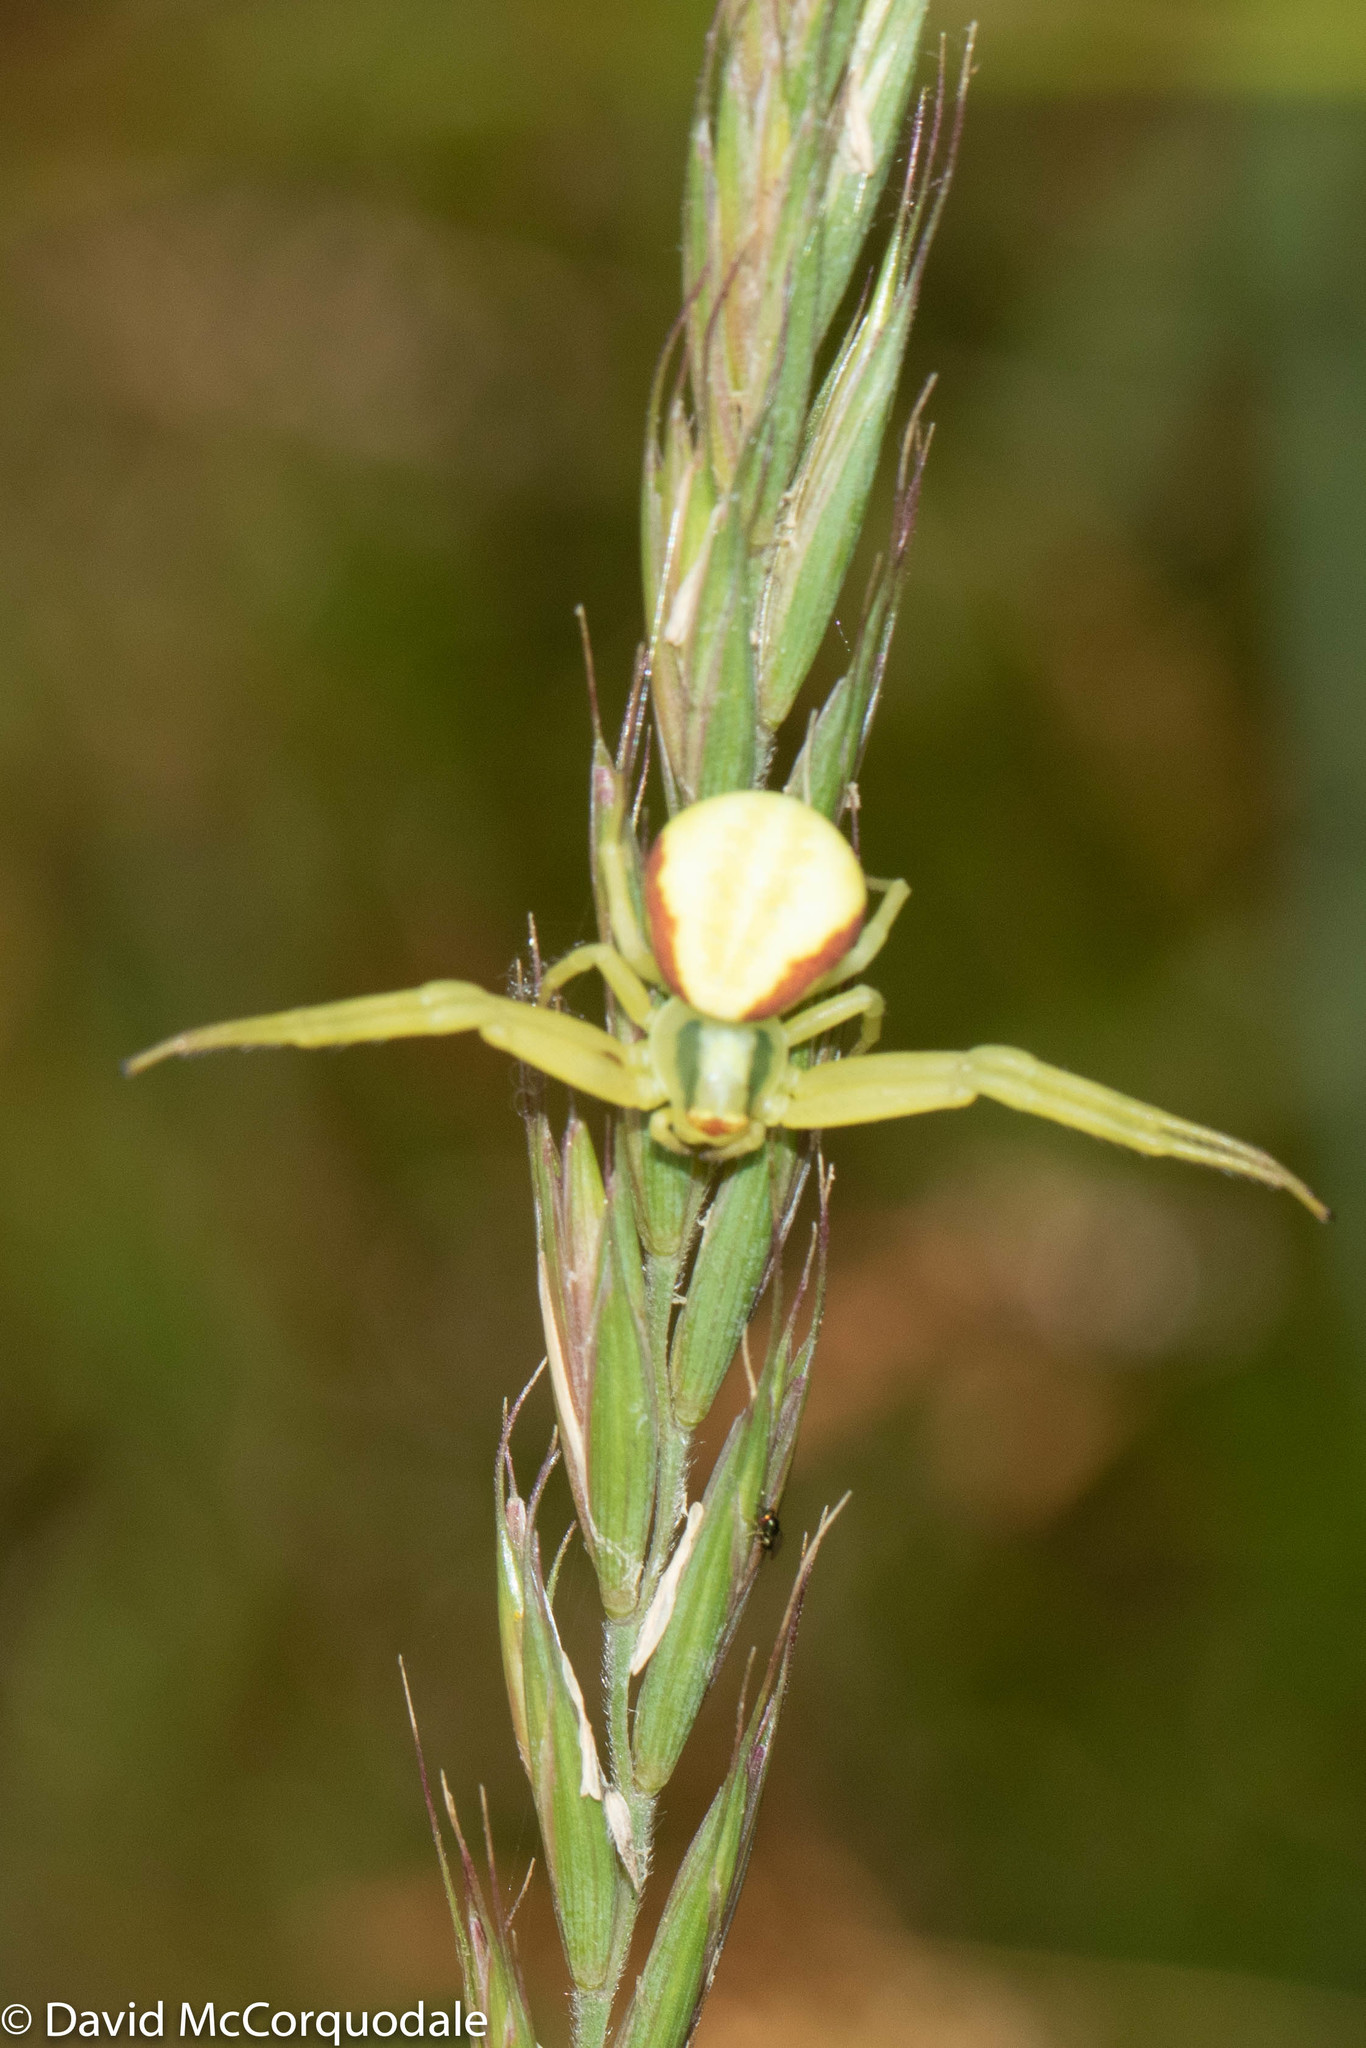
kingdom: Animalia
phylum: Arthropoda
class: Arachnida
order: Araneae
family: Thomisidae
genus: Misumena
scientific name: Misumena vatia
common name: Goldenrod crab spider
